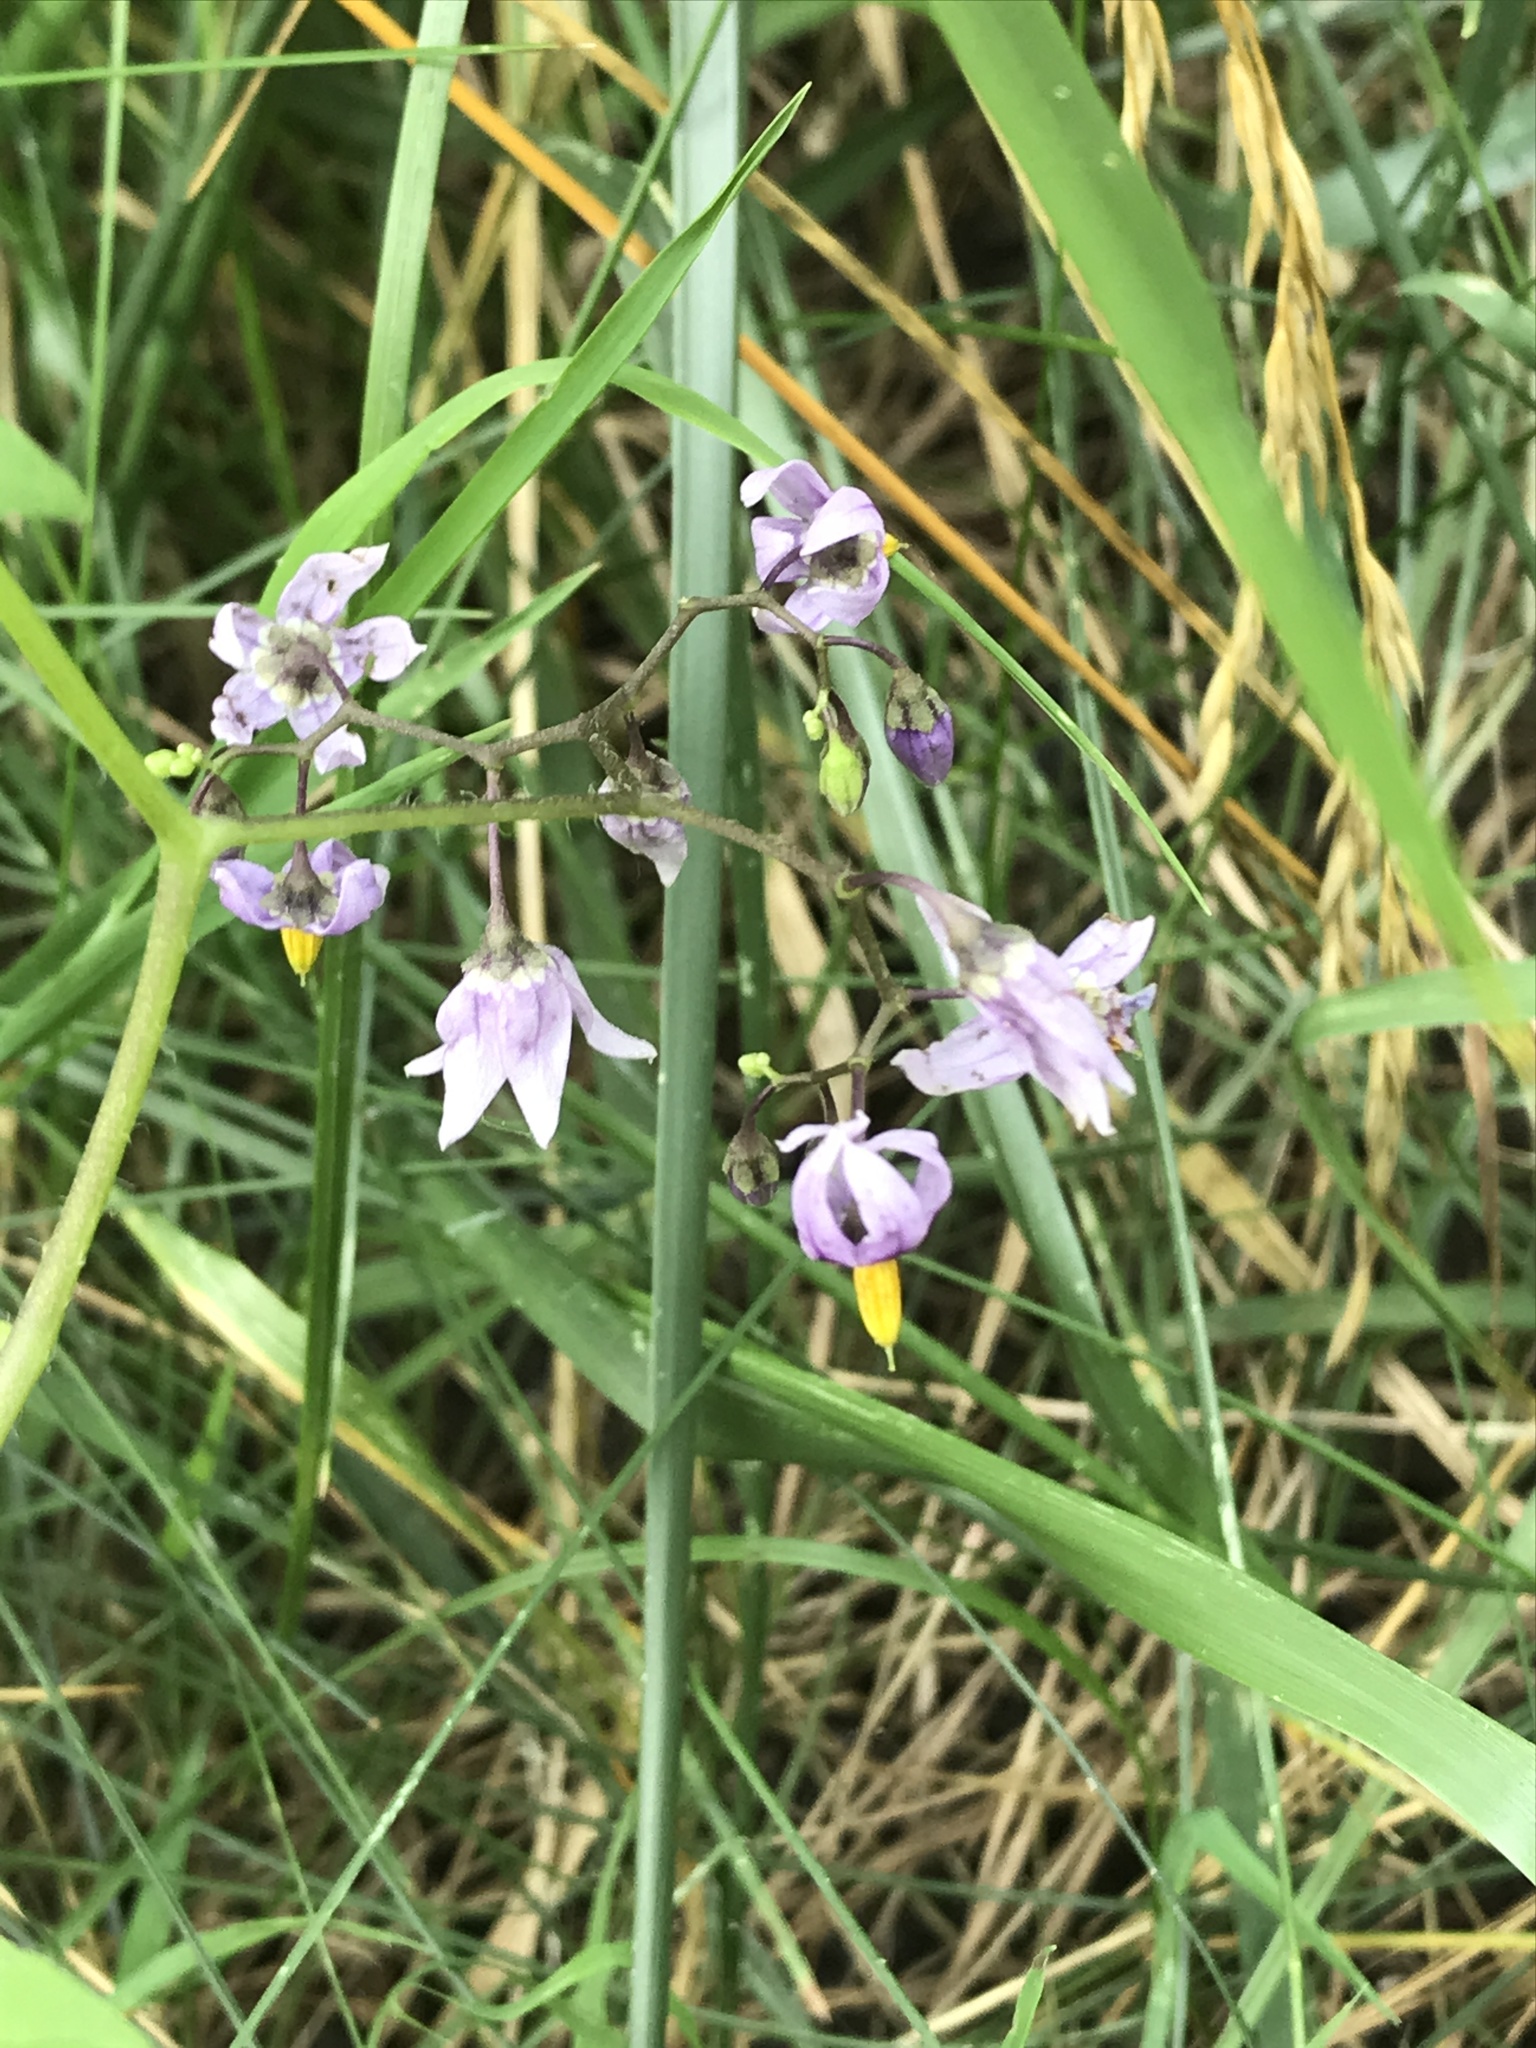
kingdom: Plantae
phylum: Tracheophyta
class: Magnoliopsida
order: Solanales
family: Solanaceae
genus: Solanum
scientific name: Solanum dulcamara
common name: Climbing nightshade
